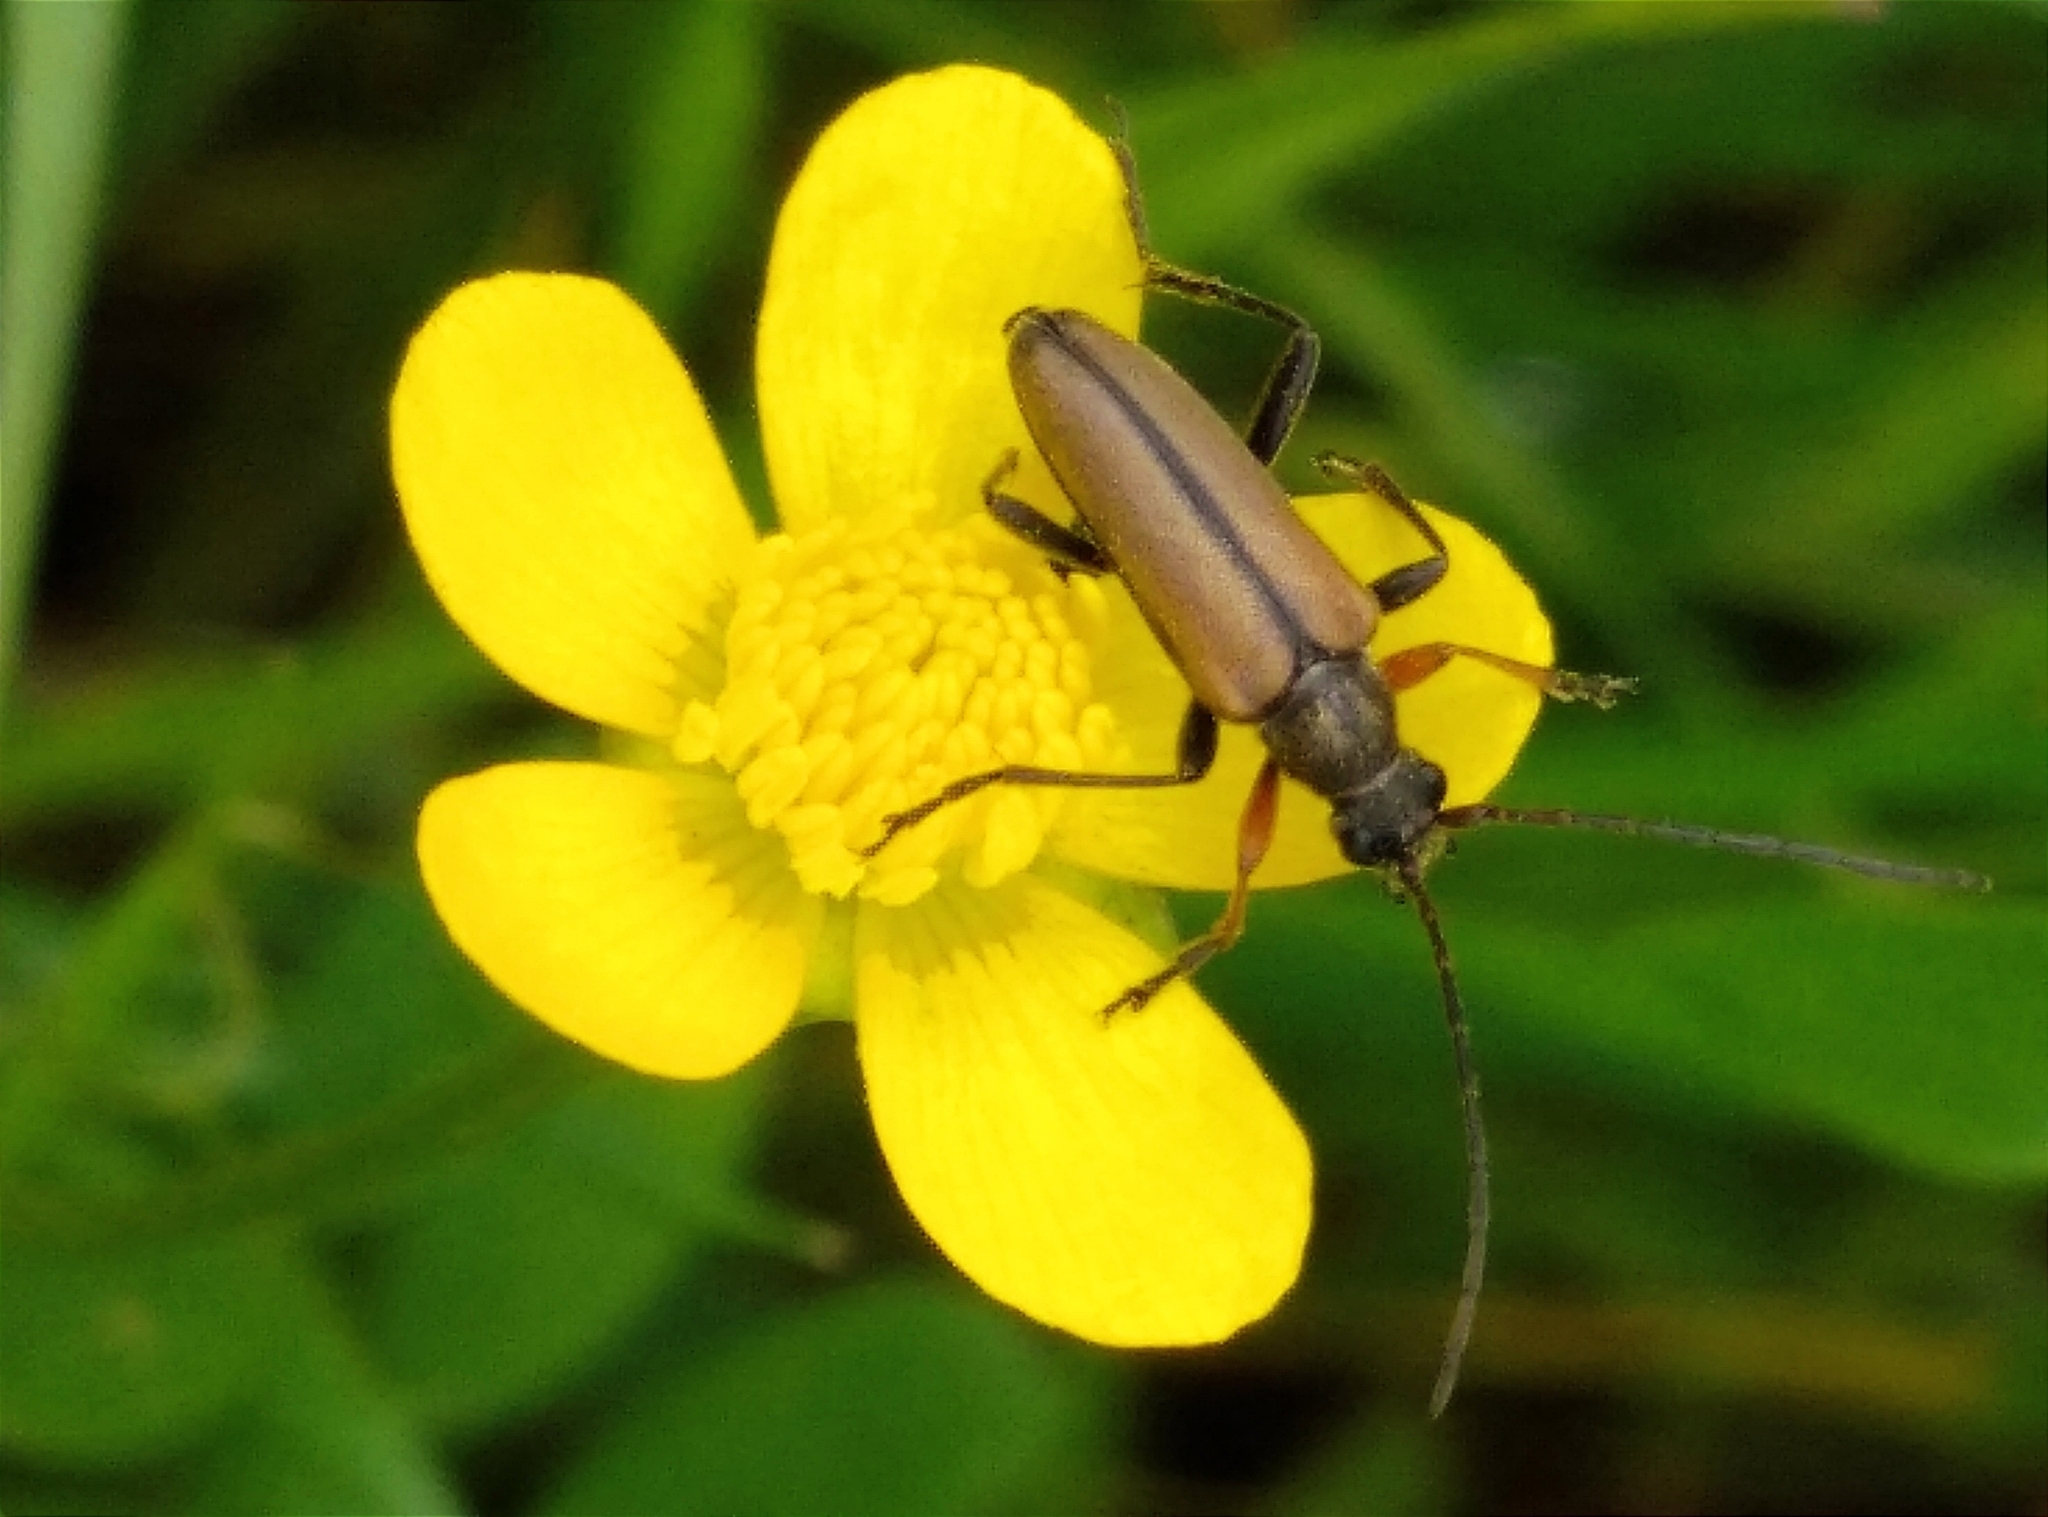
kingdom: Animalia
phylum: Arthropoda
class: Insecta
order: Coleoptera
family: Cerambycidae
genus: Cortodera
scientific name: Cortodera flavimana
